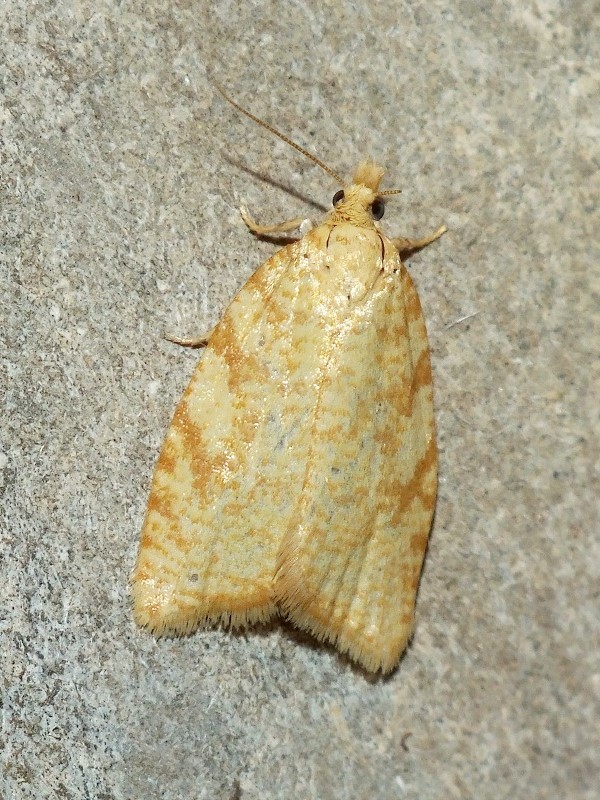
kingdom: Animalia
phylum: Arthropoda
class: Insecta
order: Lepidoptera
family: Tortricidae
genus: Aleimma
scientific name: Aleimma loeflingiana
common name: Yellow oak button
